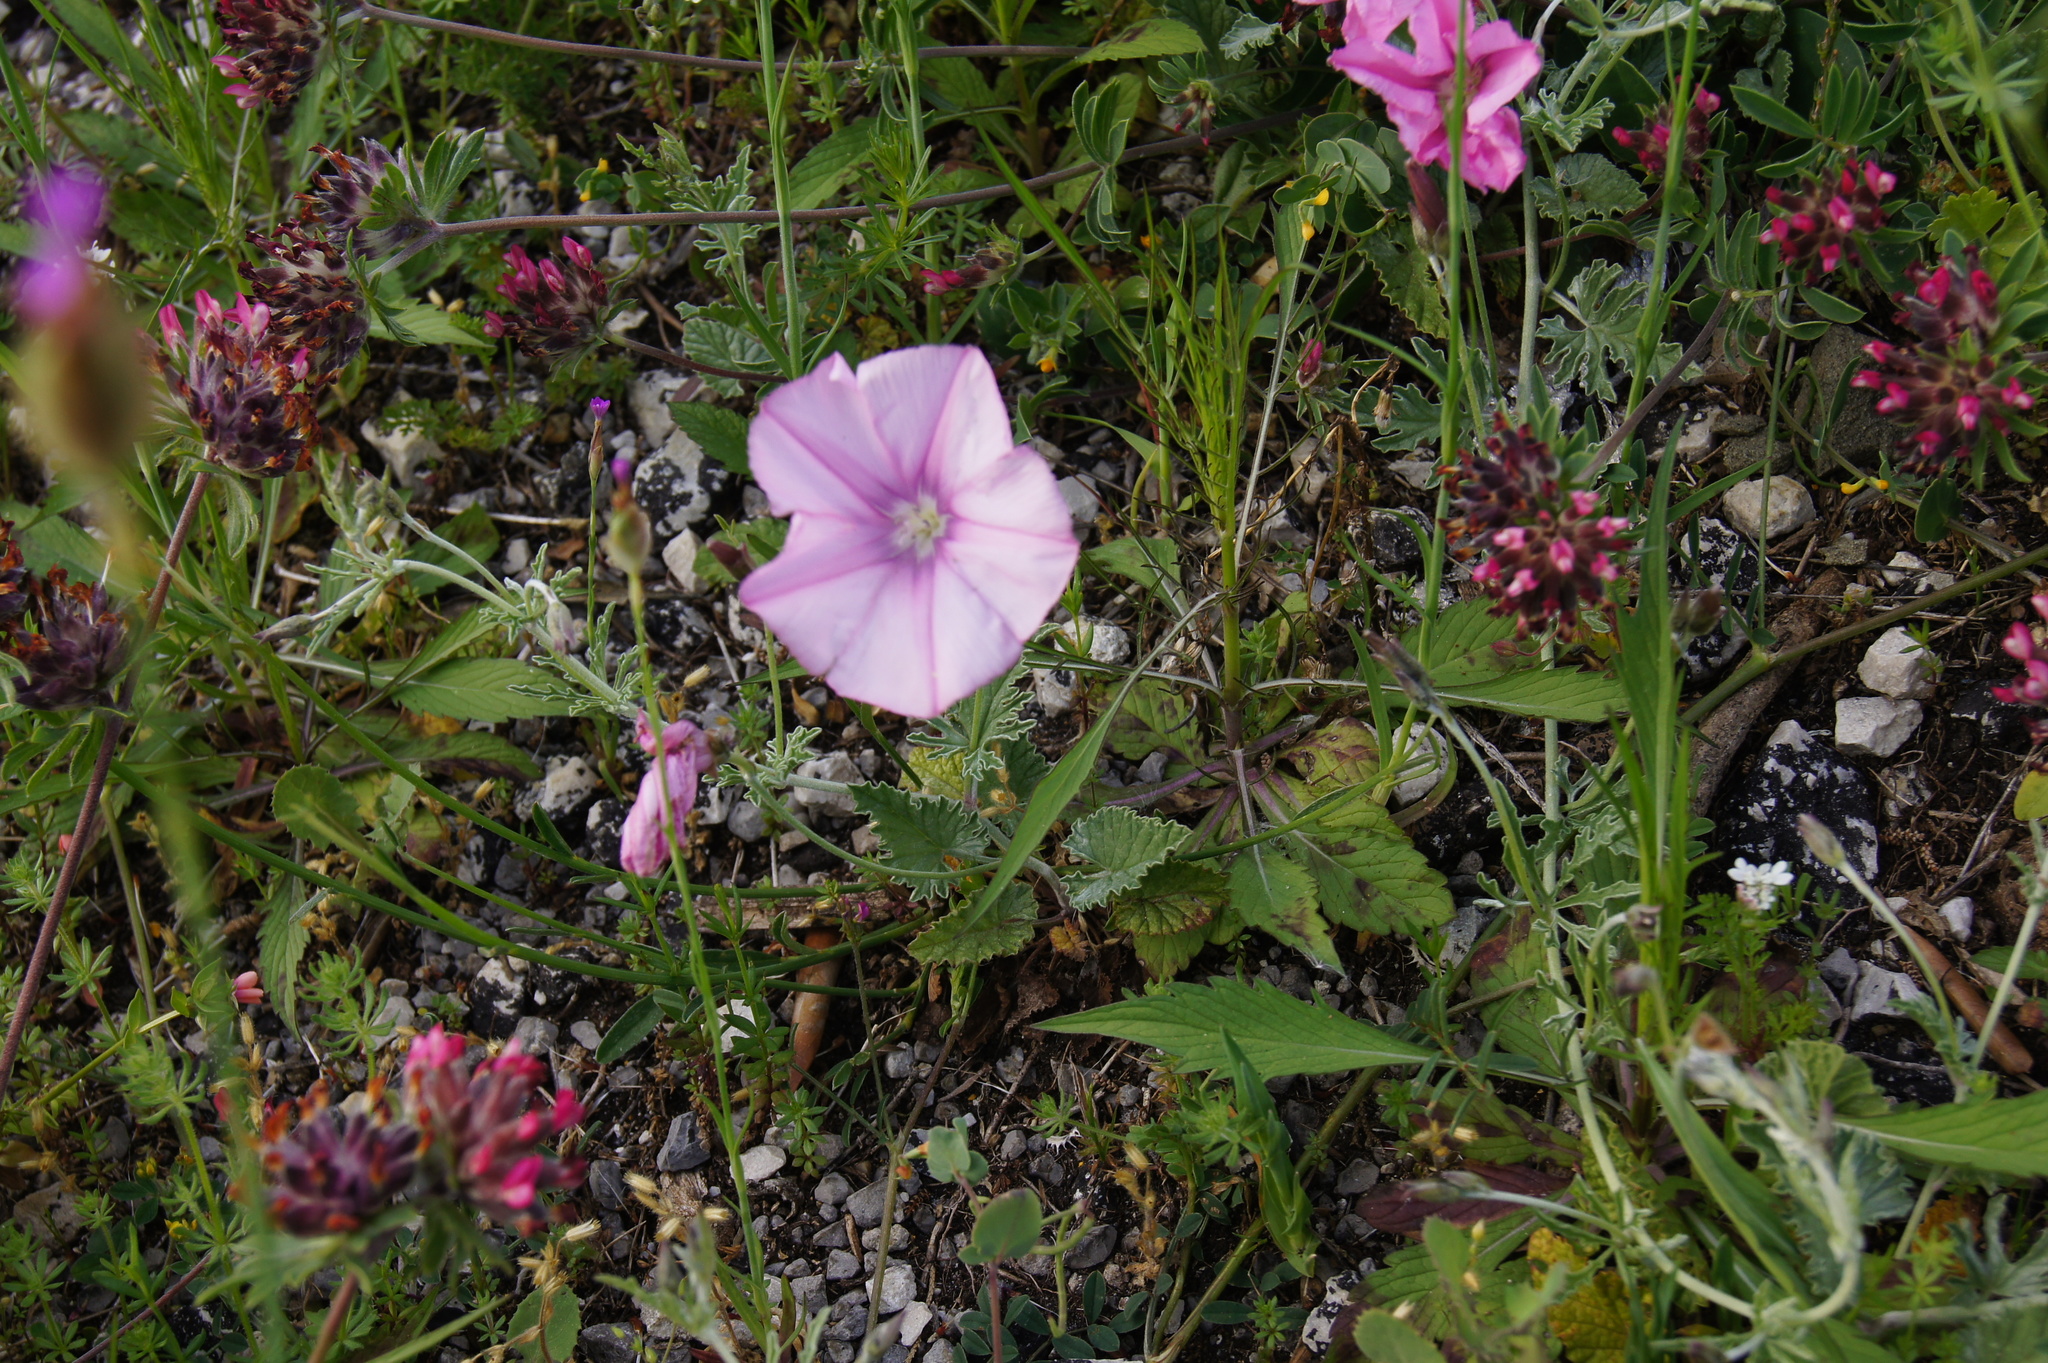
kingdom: Plantae
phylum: Tracheophyta
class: Magnoliopsida
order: Solanales
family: Convolvulaceae
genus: Convolvulus
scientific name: Convolvulus elegantissimus
